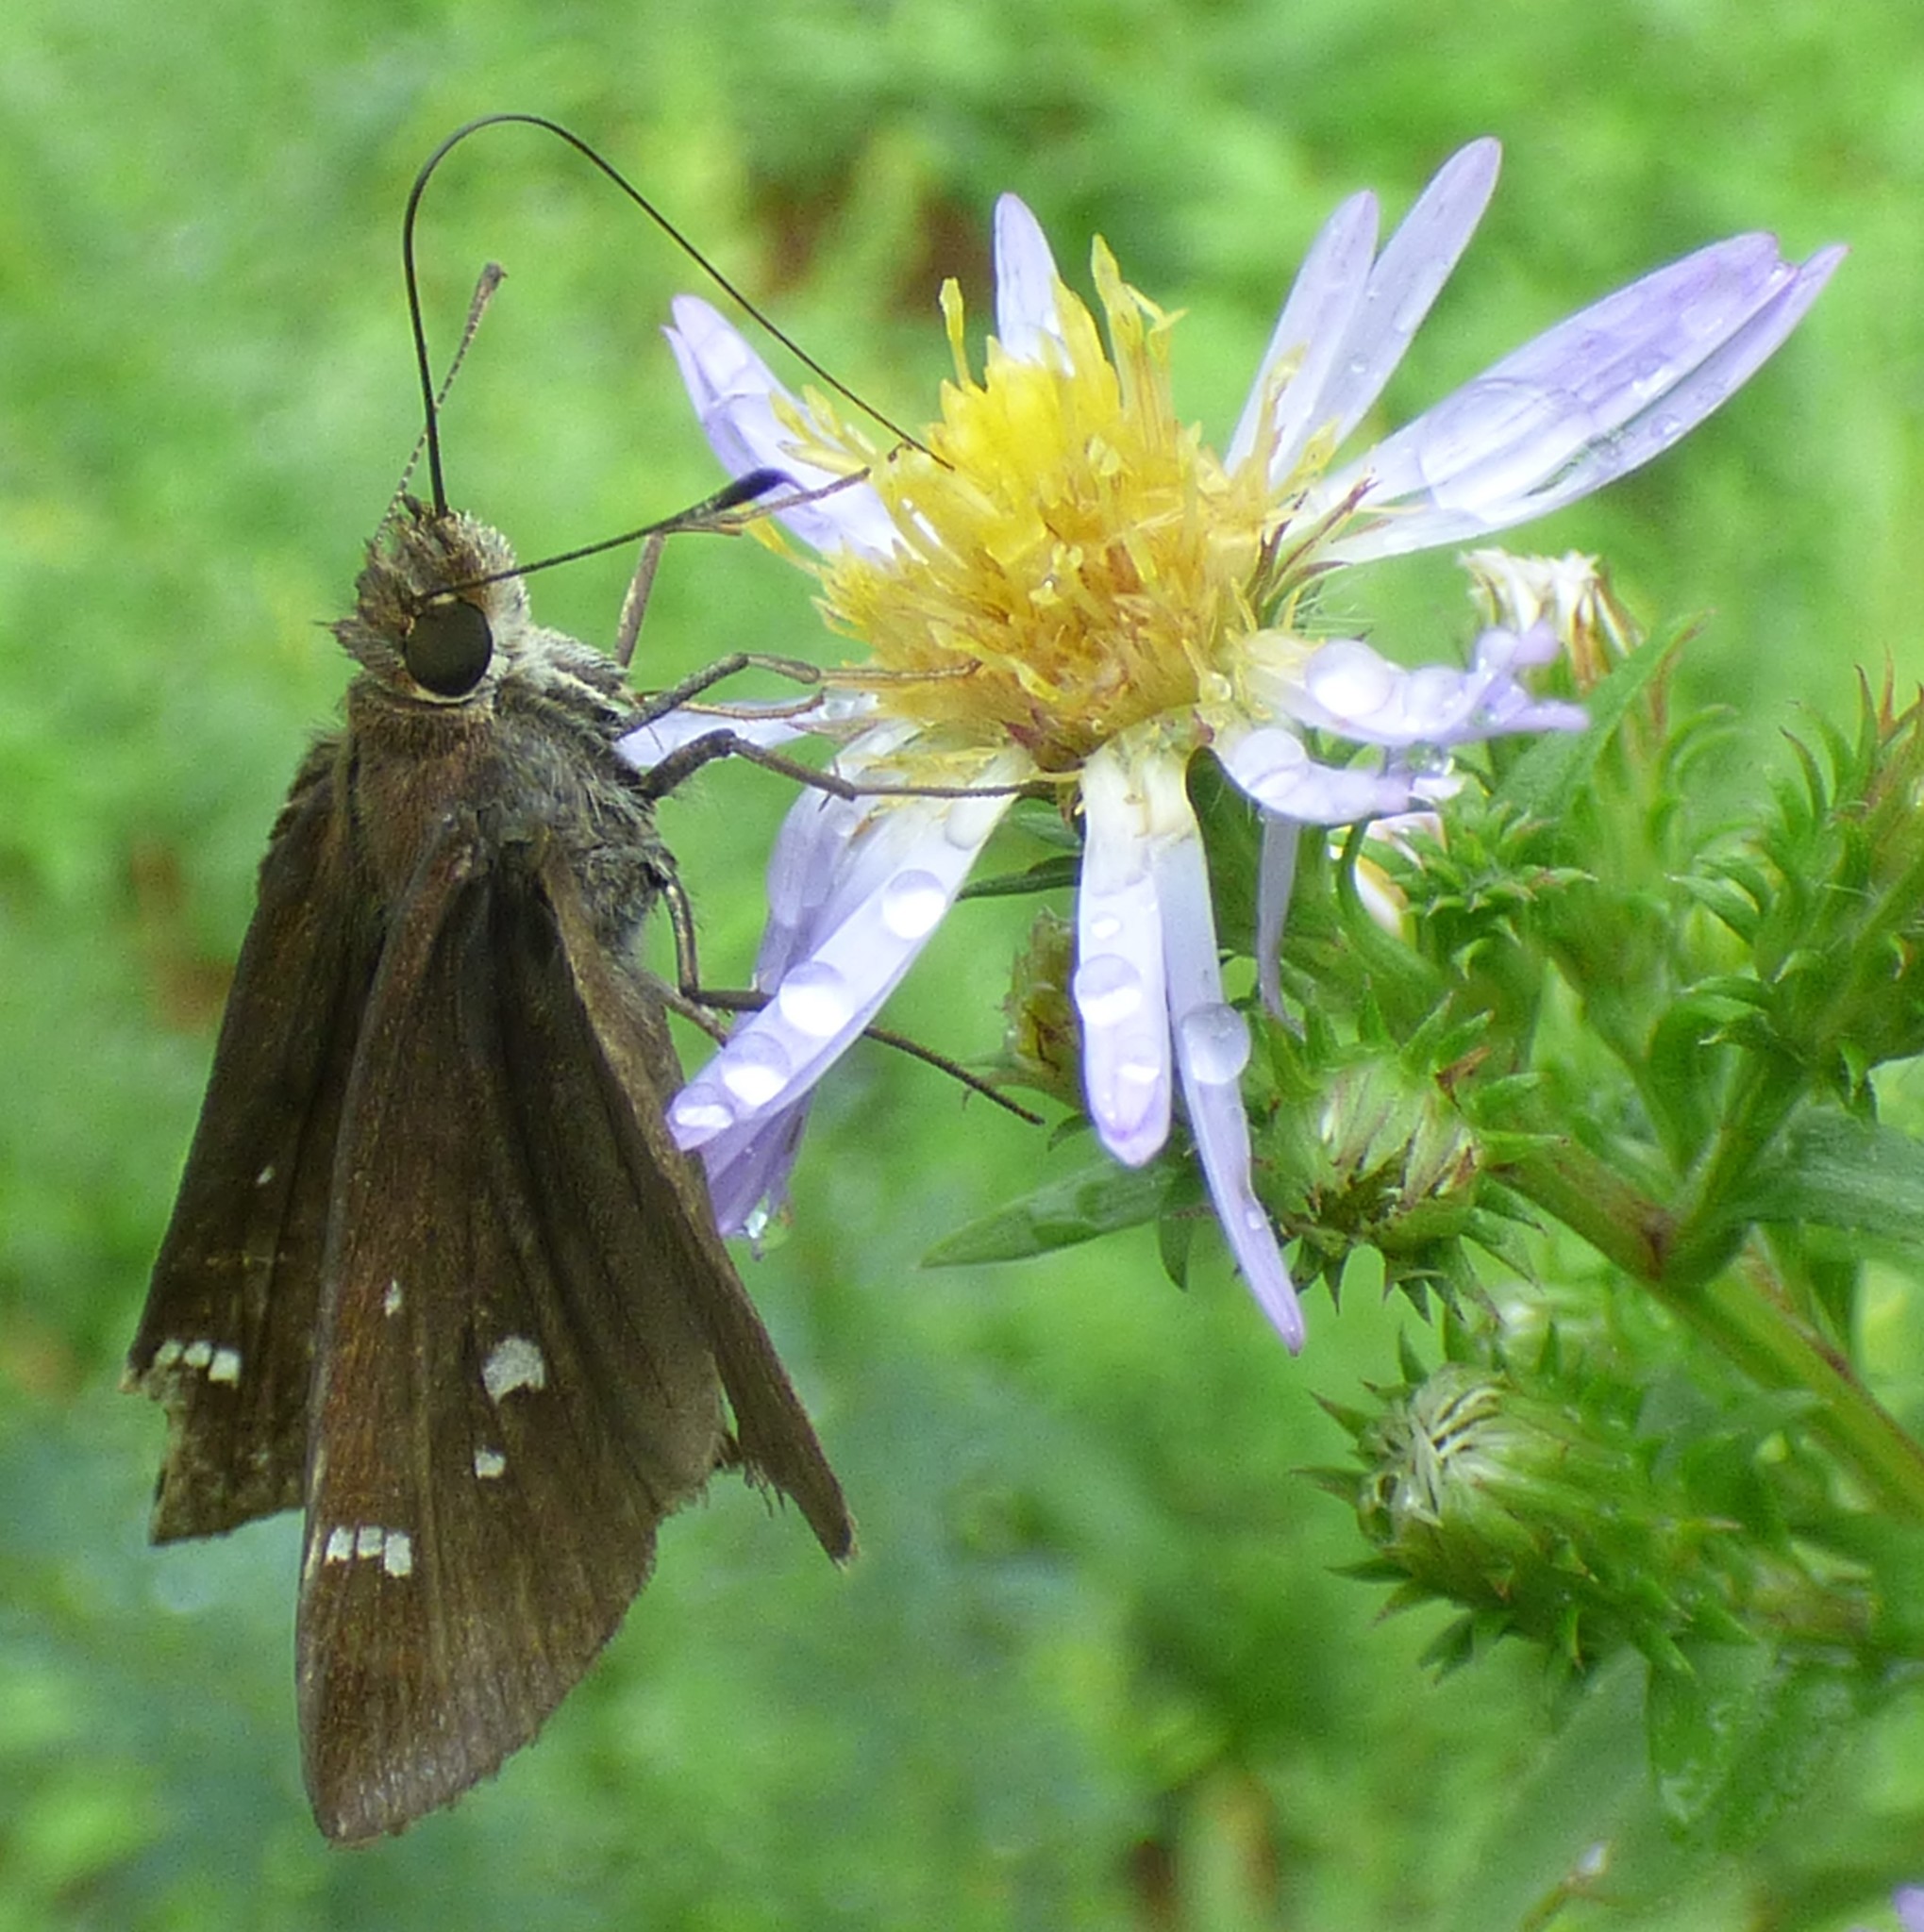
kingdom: Animalia
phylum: Arthropoda
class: Insecta
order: Lepidoptera
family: Hesperiidae
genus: Lerema
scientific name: Lerema accius
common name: Clouded skipper
